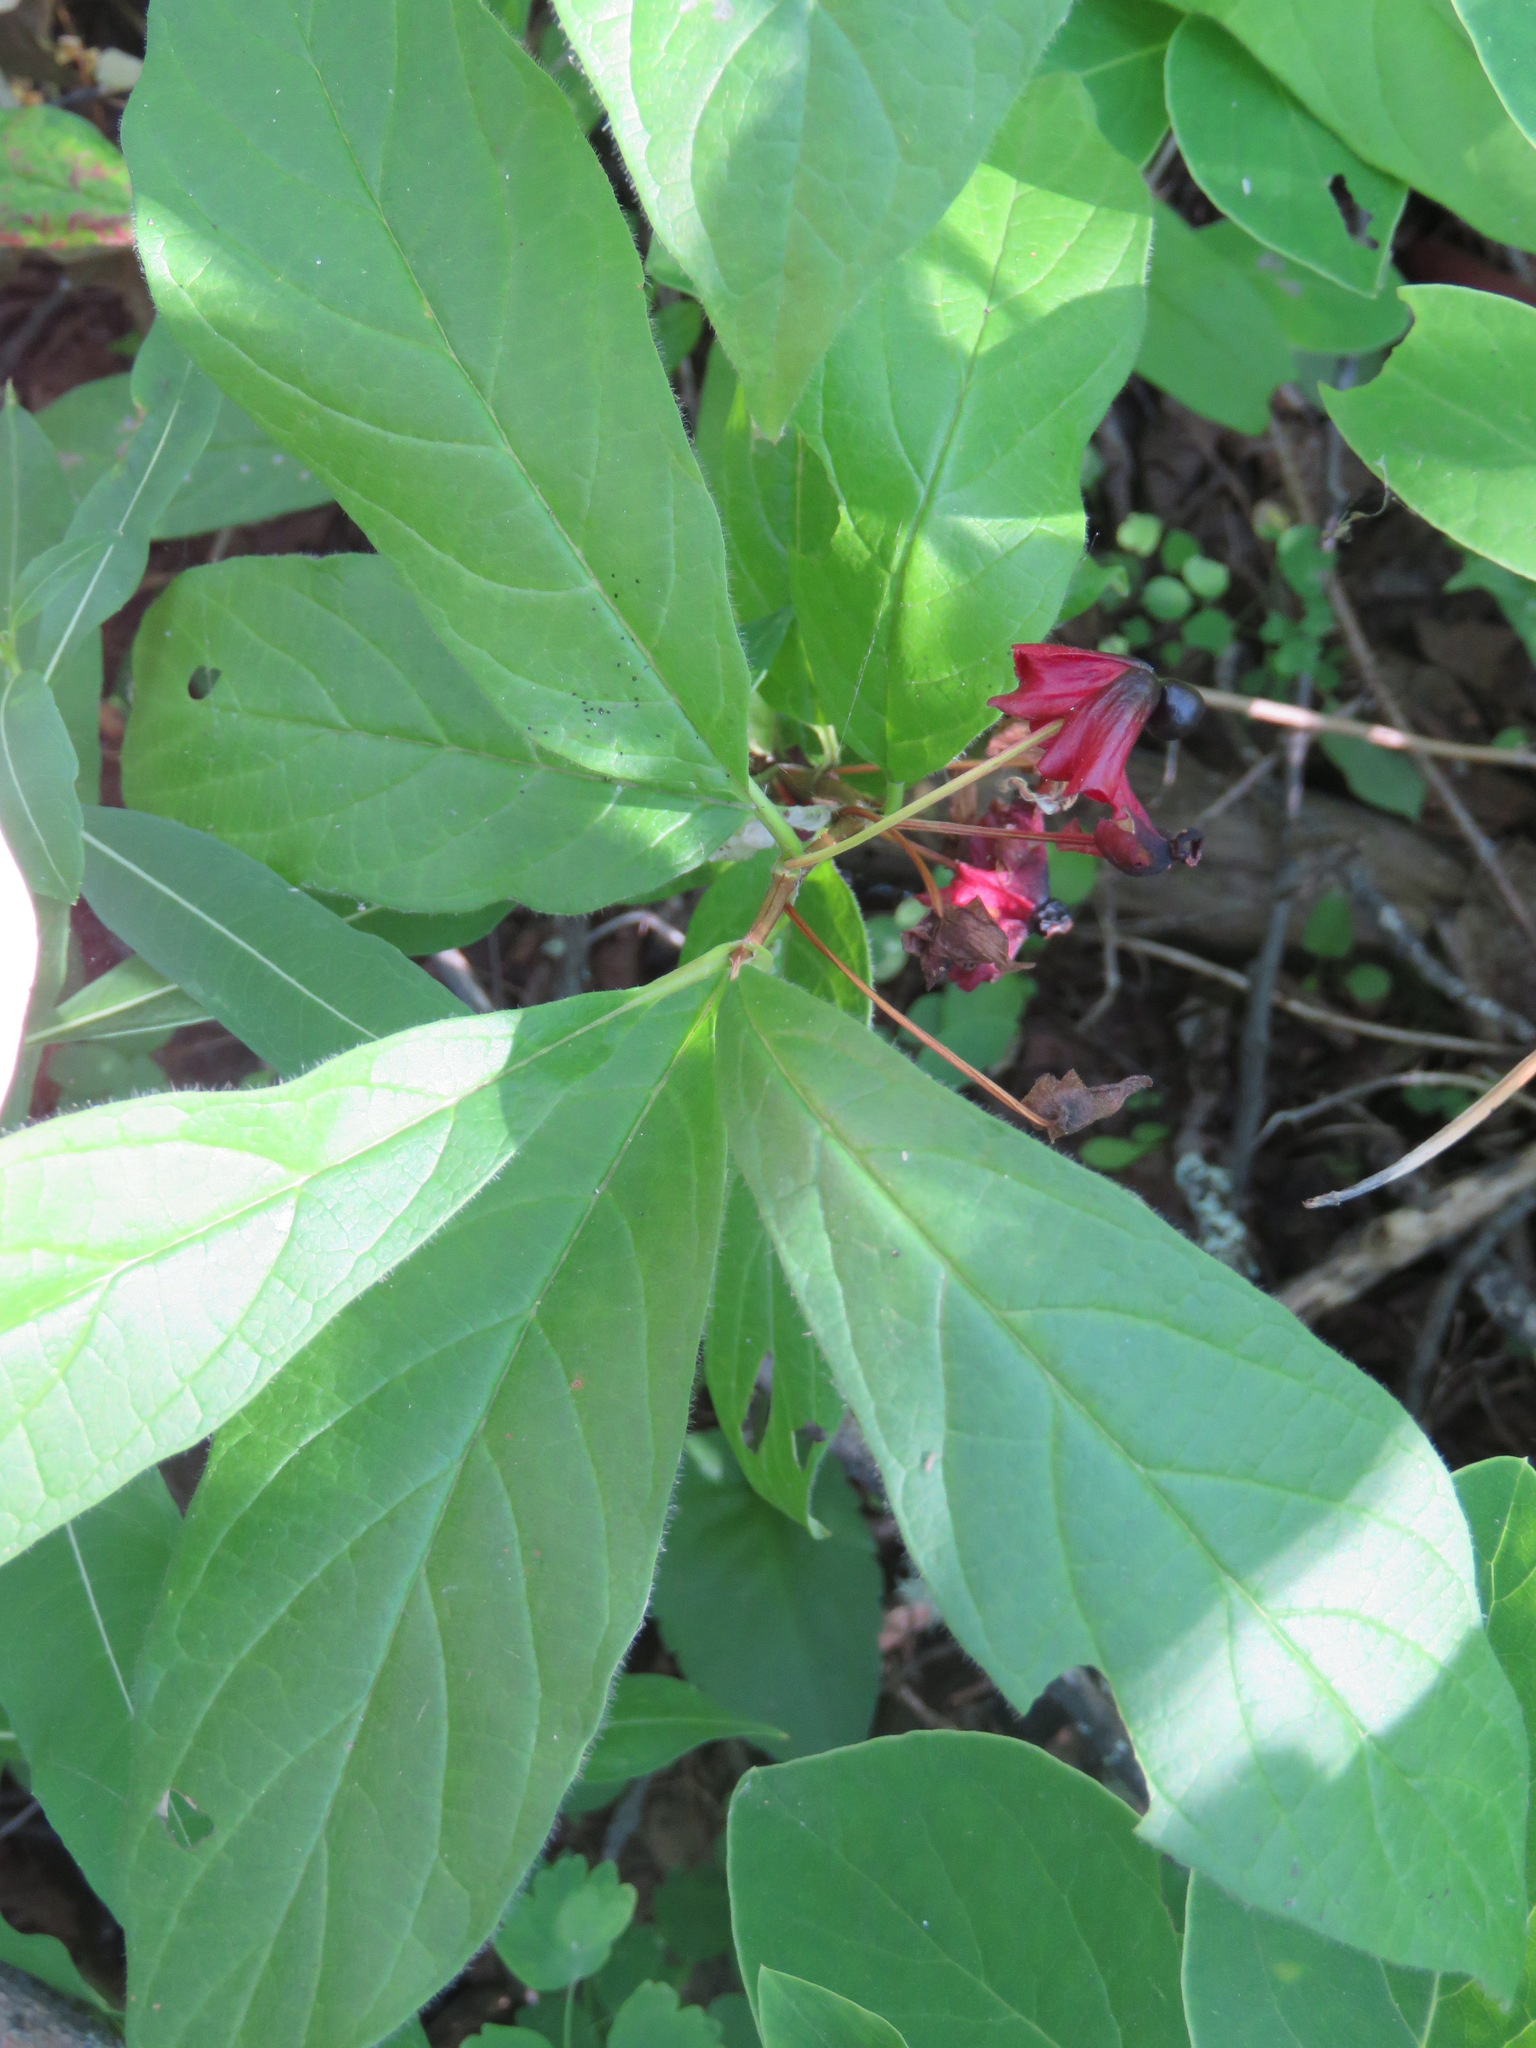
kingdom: Plantae
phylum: Tracheophyta
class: Magnoliopsida
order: Dipsacales
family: Caprifoliaceae
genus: Lonicera
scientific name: Lonicera involucrata
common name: Californian honeysuckle
